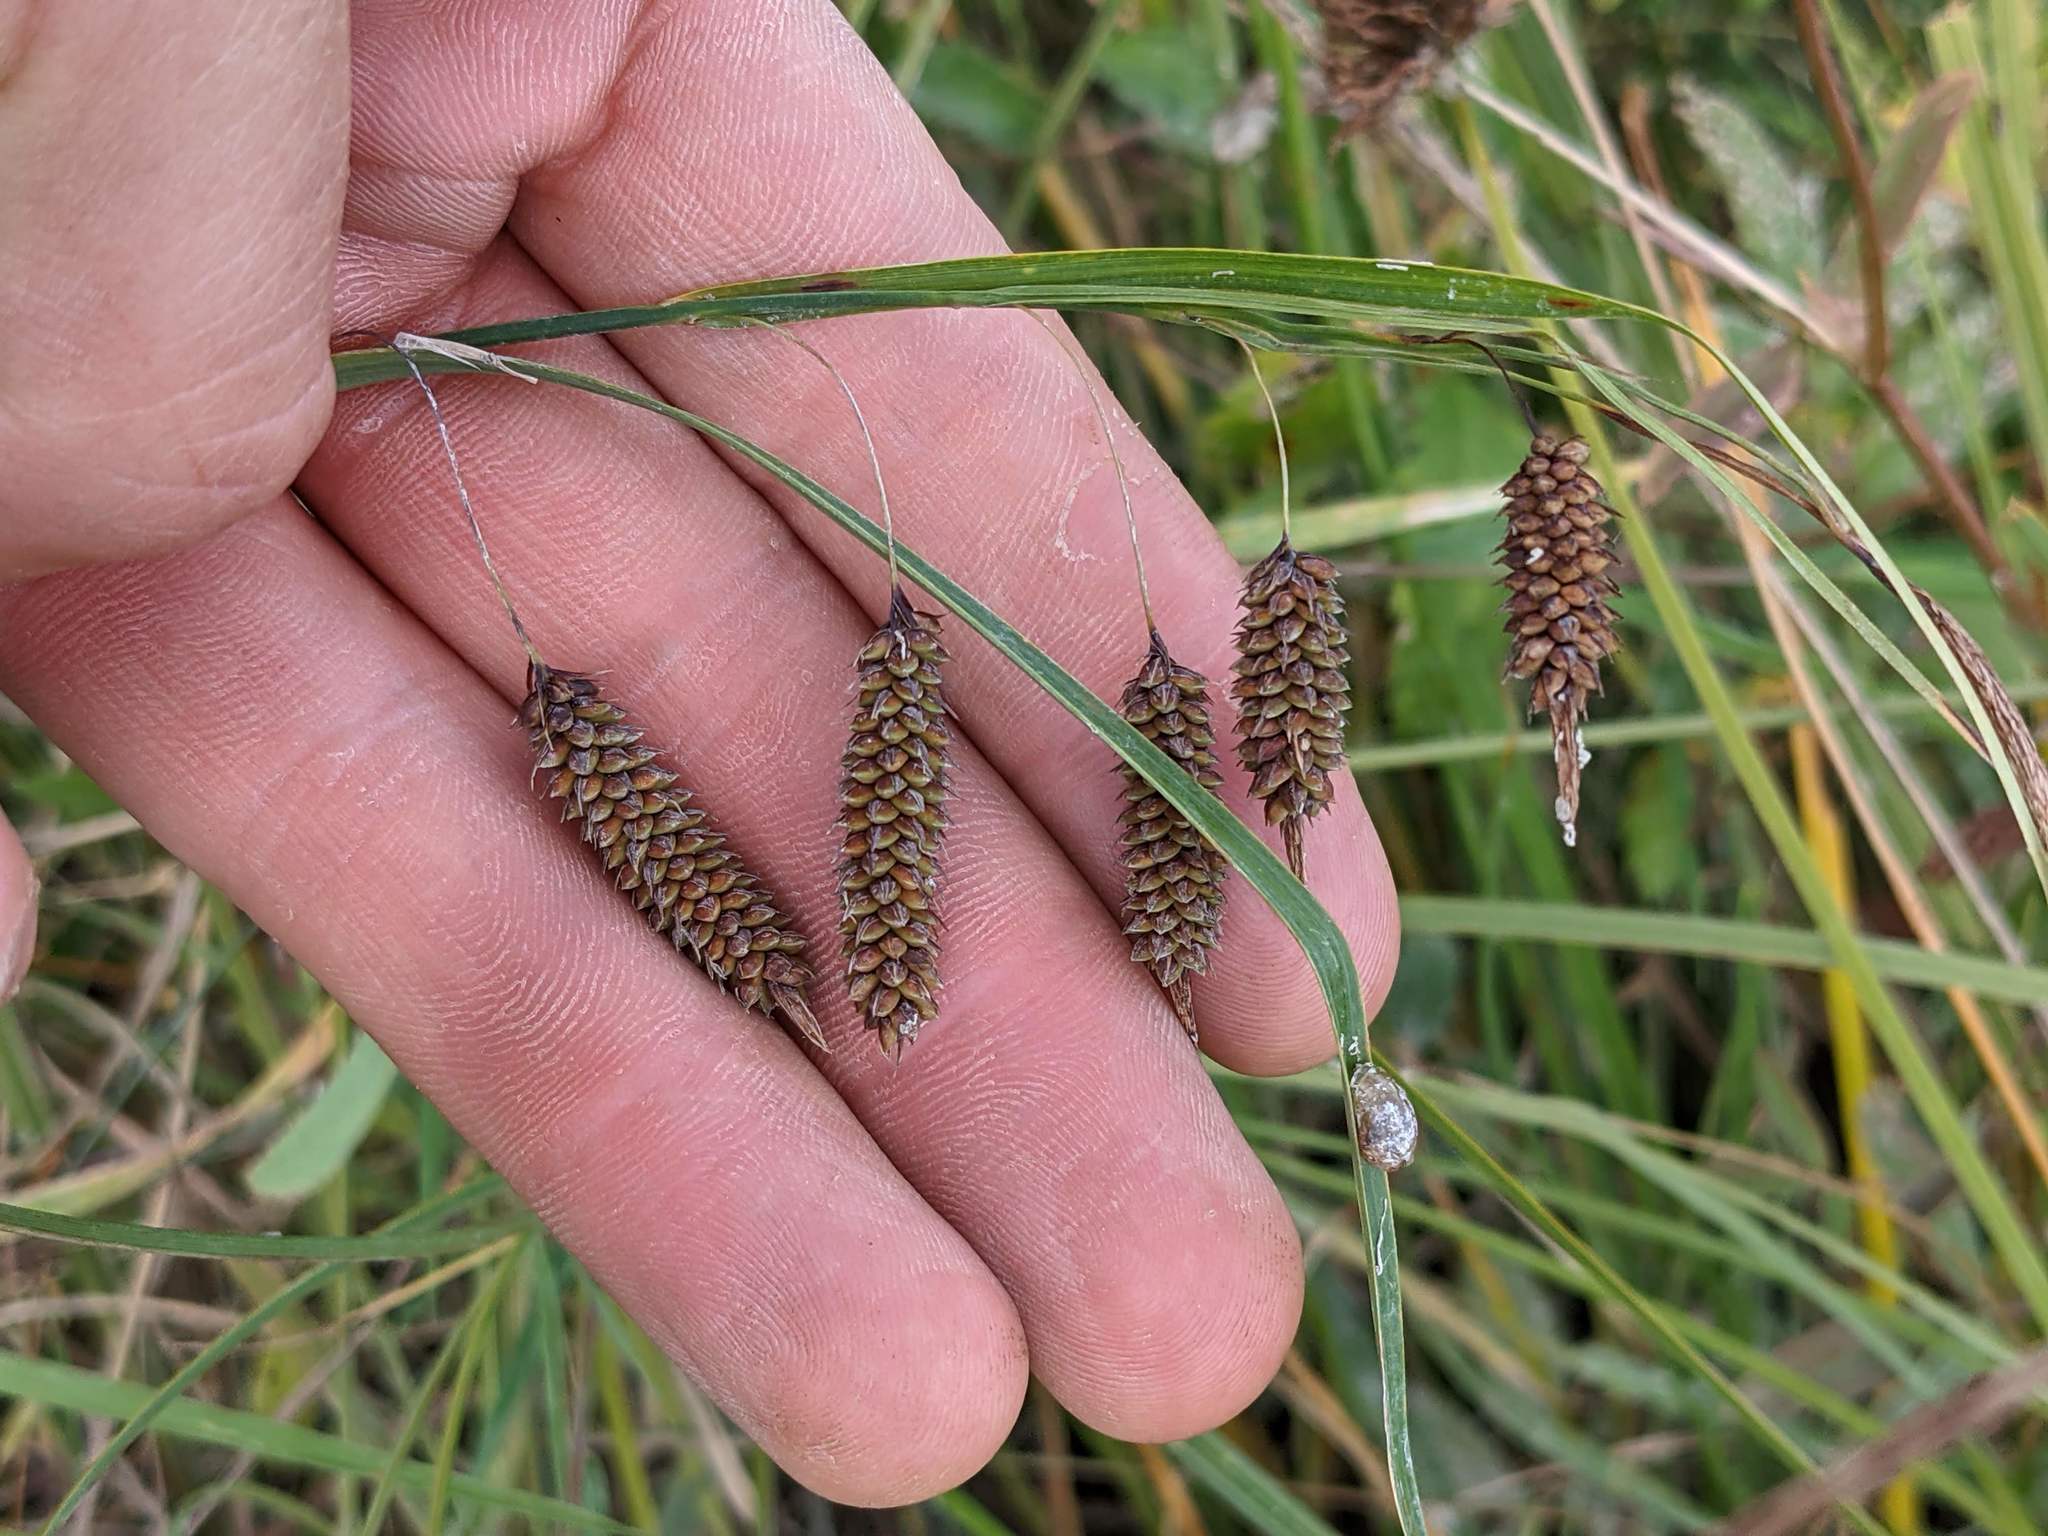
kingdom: Plantae
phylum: Tracheophyta
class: Liliopsida
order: Poales
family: Cyperaceae
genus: Carex
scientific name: Carex lyngbyei
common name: Lyngbye's sedge
